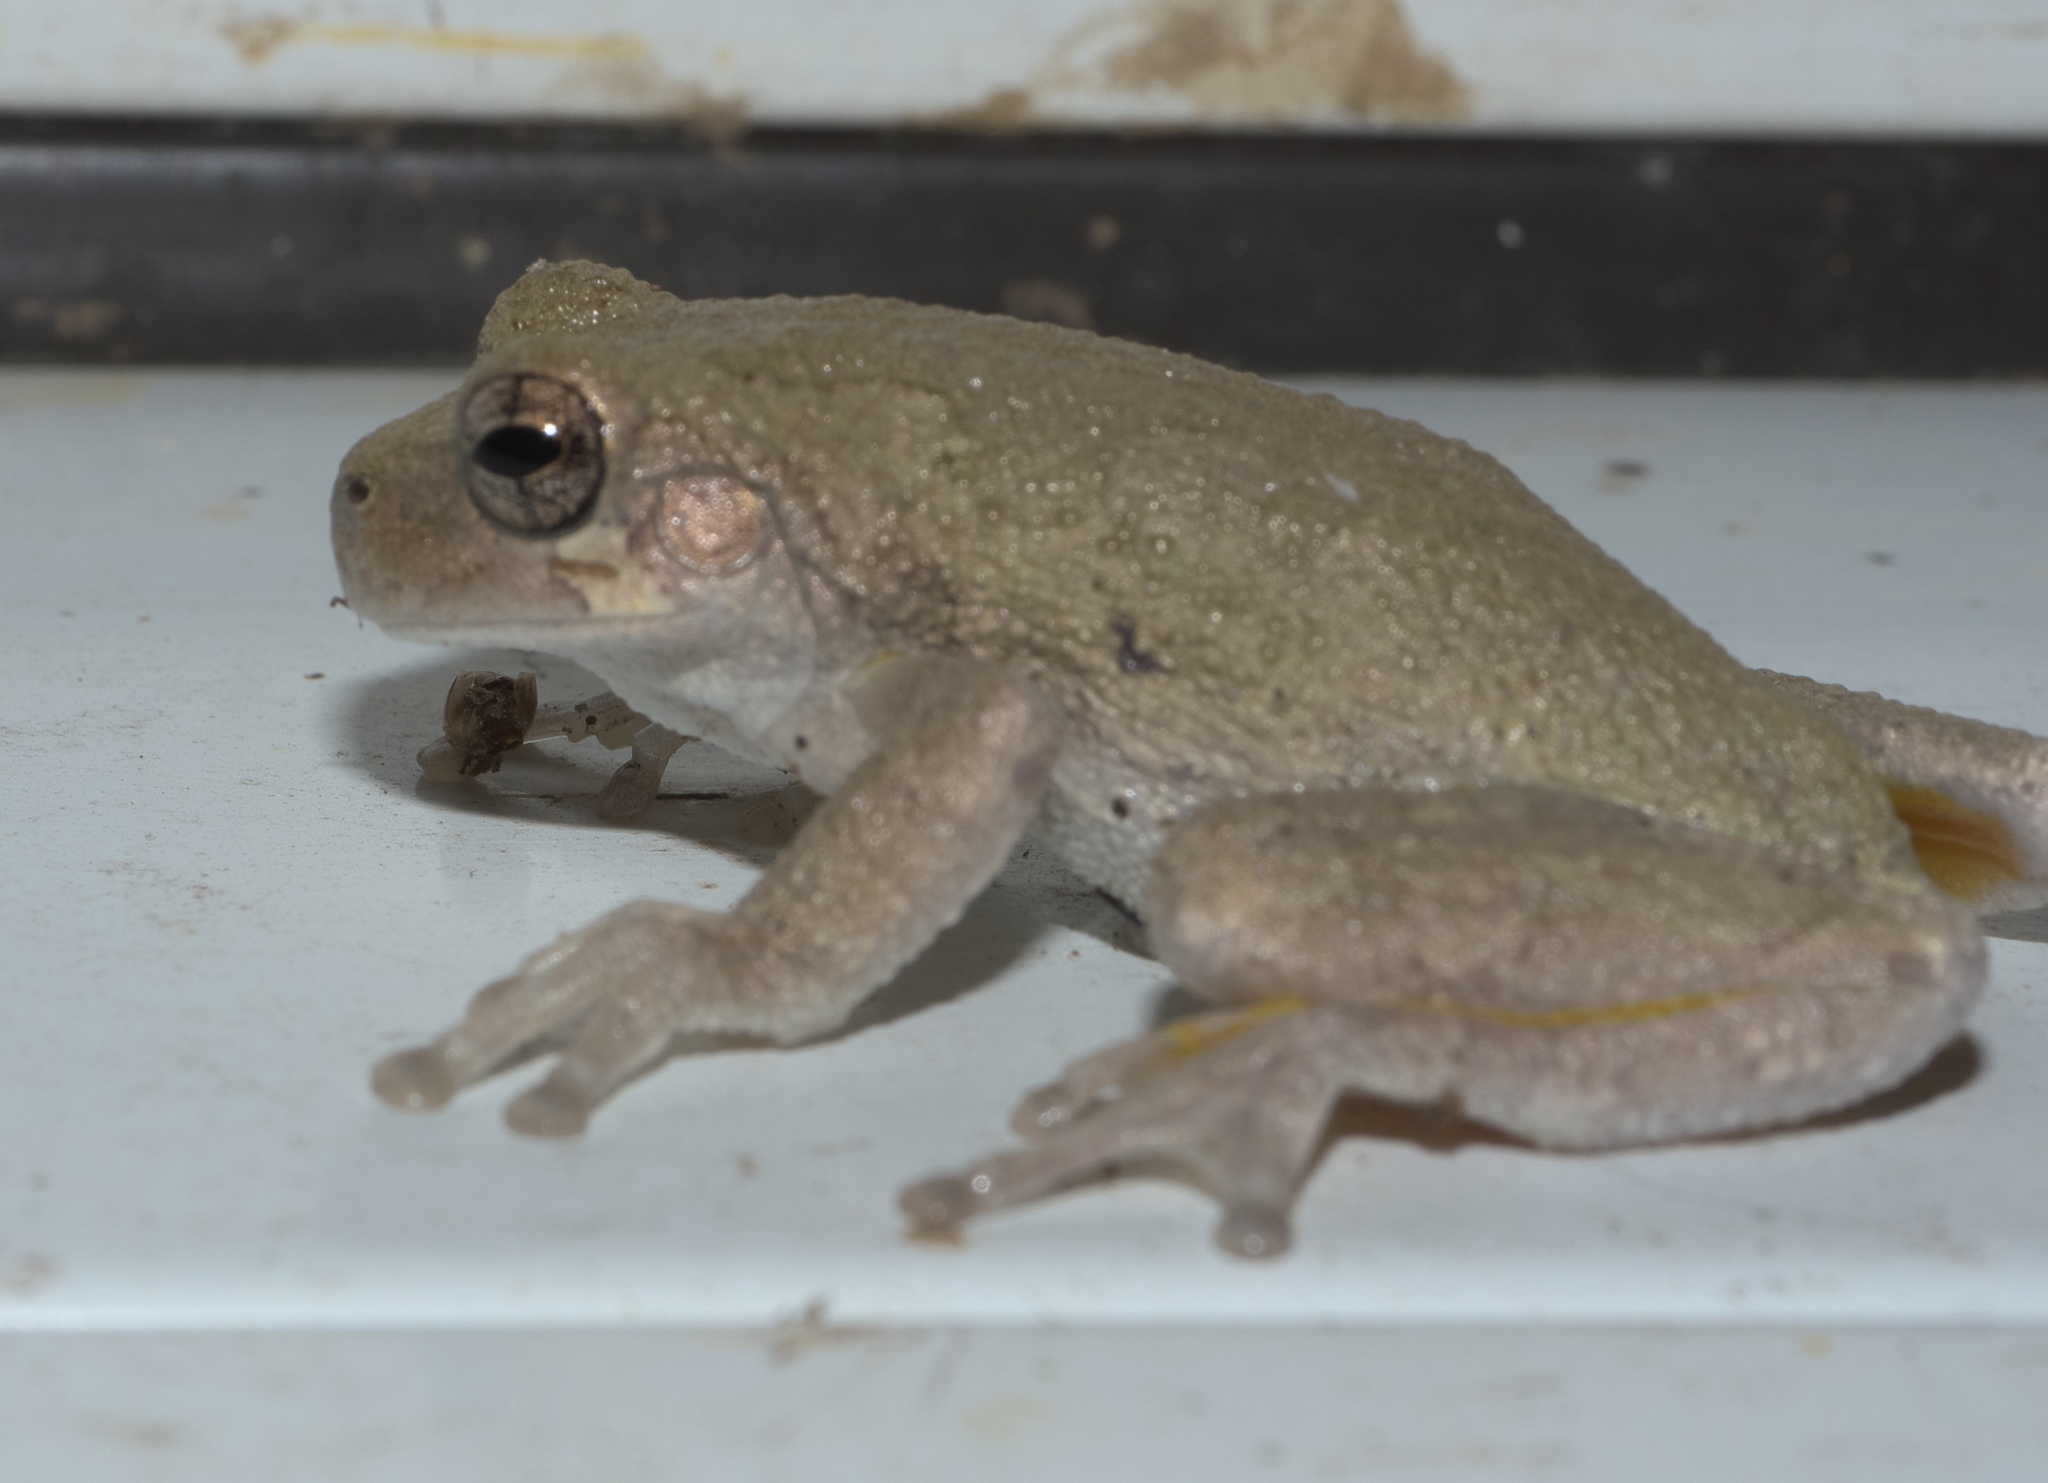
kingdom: Animalia
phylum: Chordata
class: Amphibia
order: Anura
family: Hylidae
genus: Hyla
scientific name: Hyla
